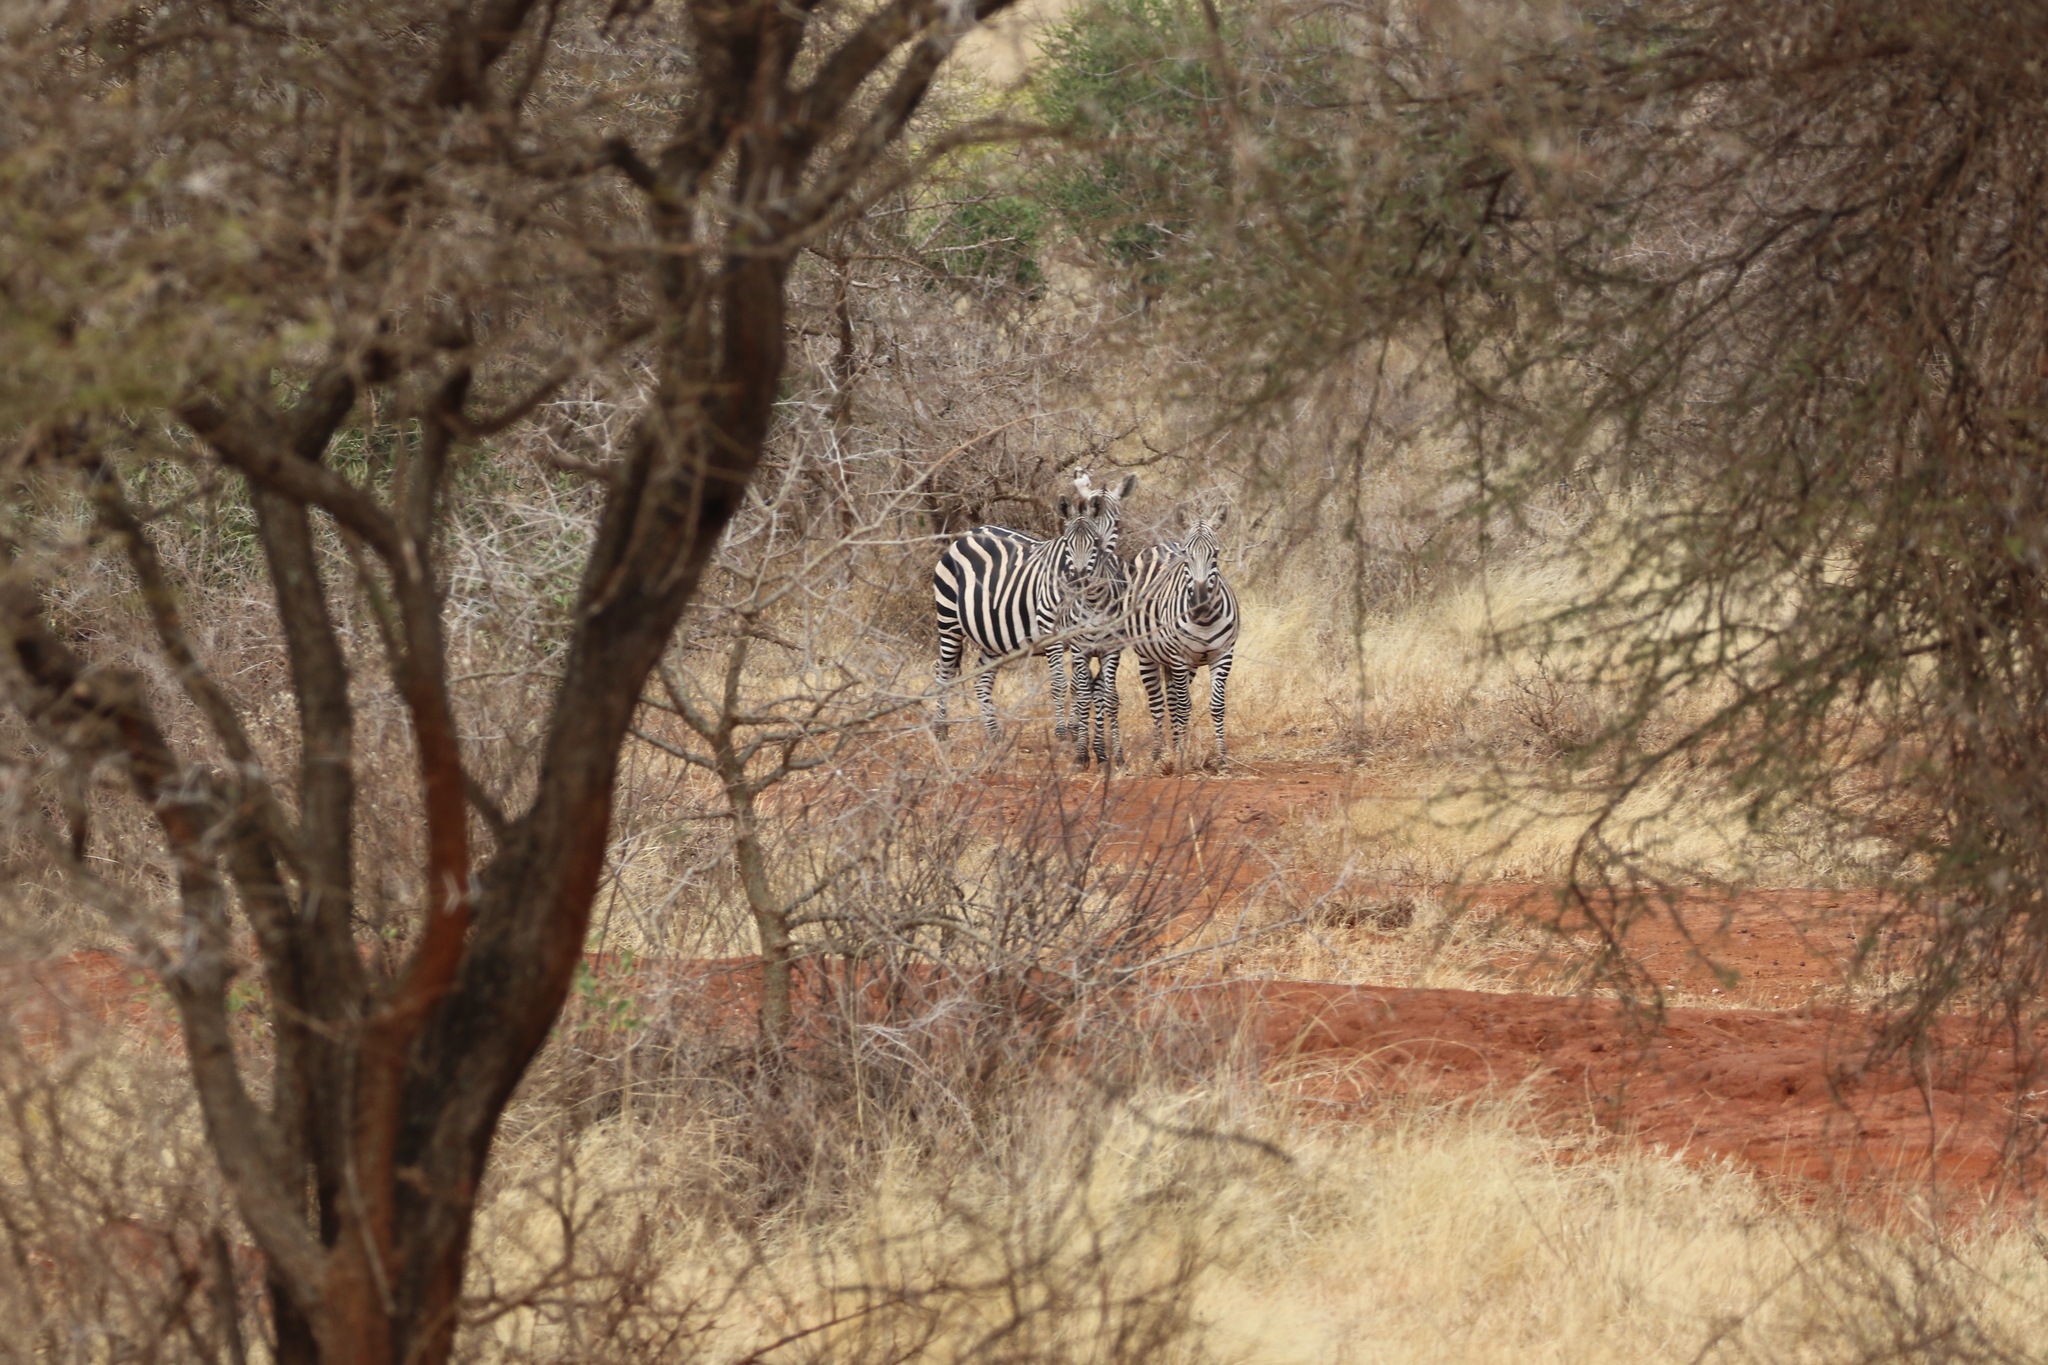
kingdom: Animalia
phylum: Chordata
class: Mammalia
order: Perissodactyla
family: Equidae
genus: Equus
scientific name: Equus quagga
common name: Plains zebra
